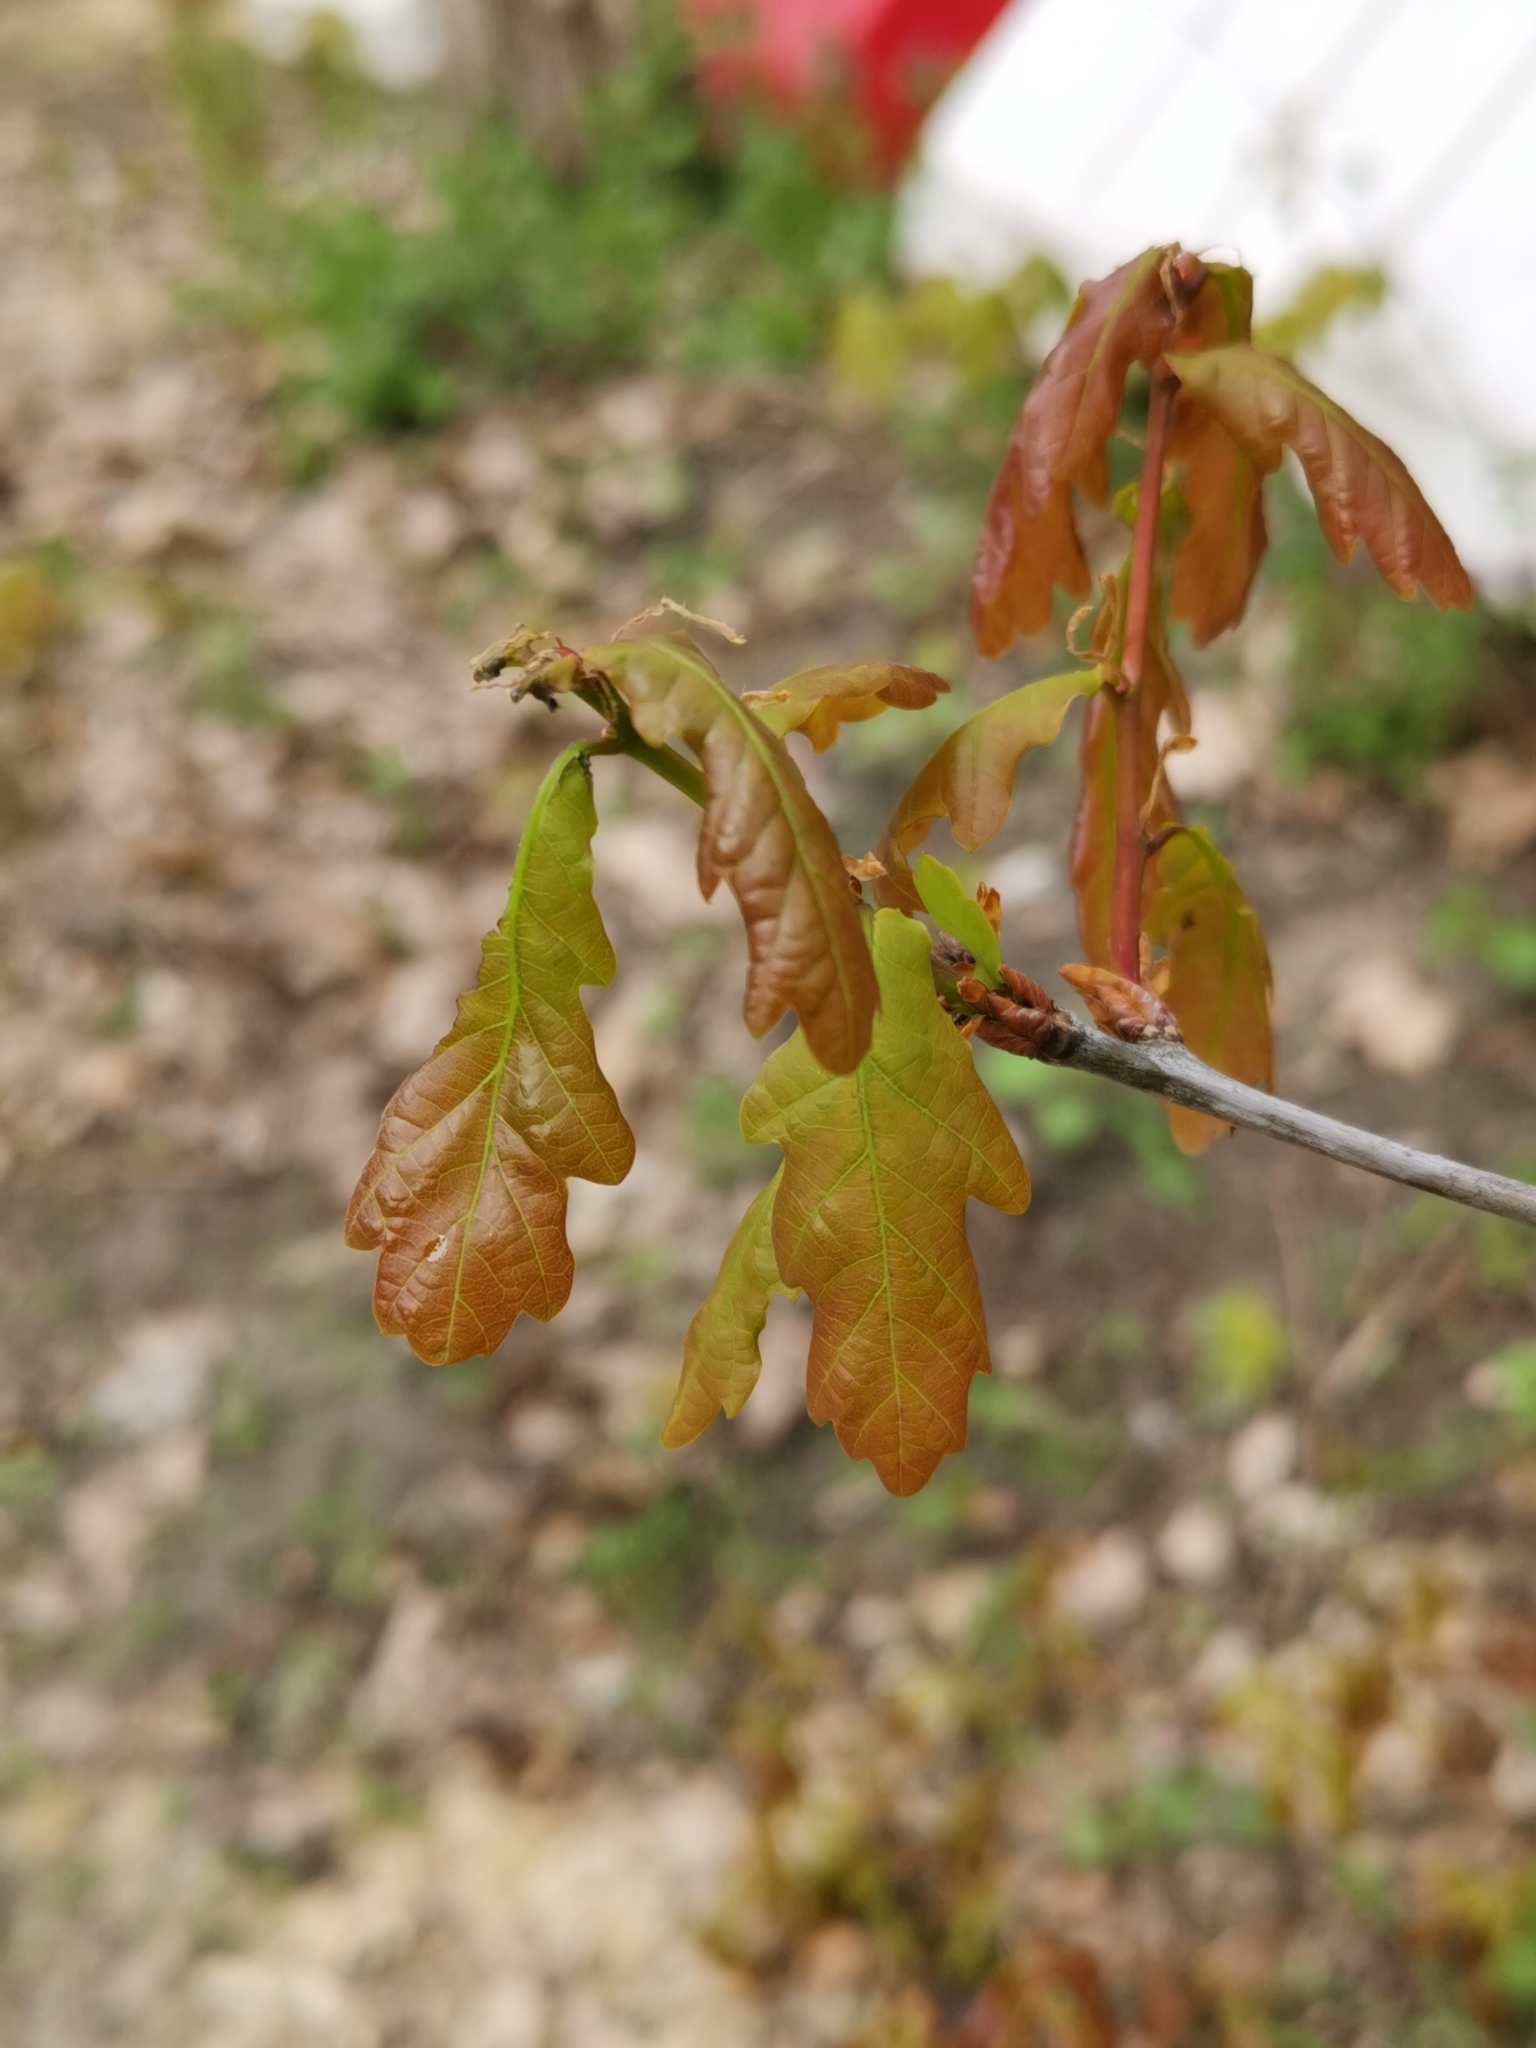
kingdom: Plantae
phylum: Tracheophyta
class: Magnoliopsida
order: Fagales
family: Fagaceae
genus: Quercus
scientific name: Quercus robur
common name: Pedunculate oak
